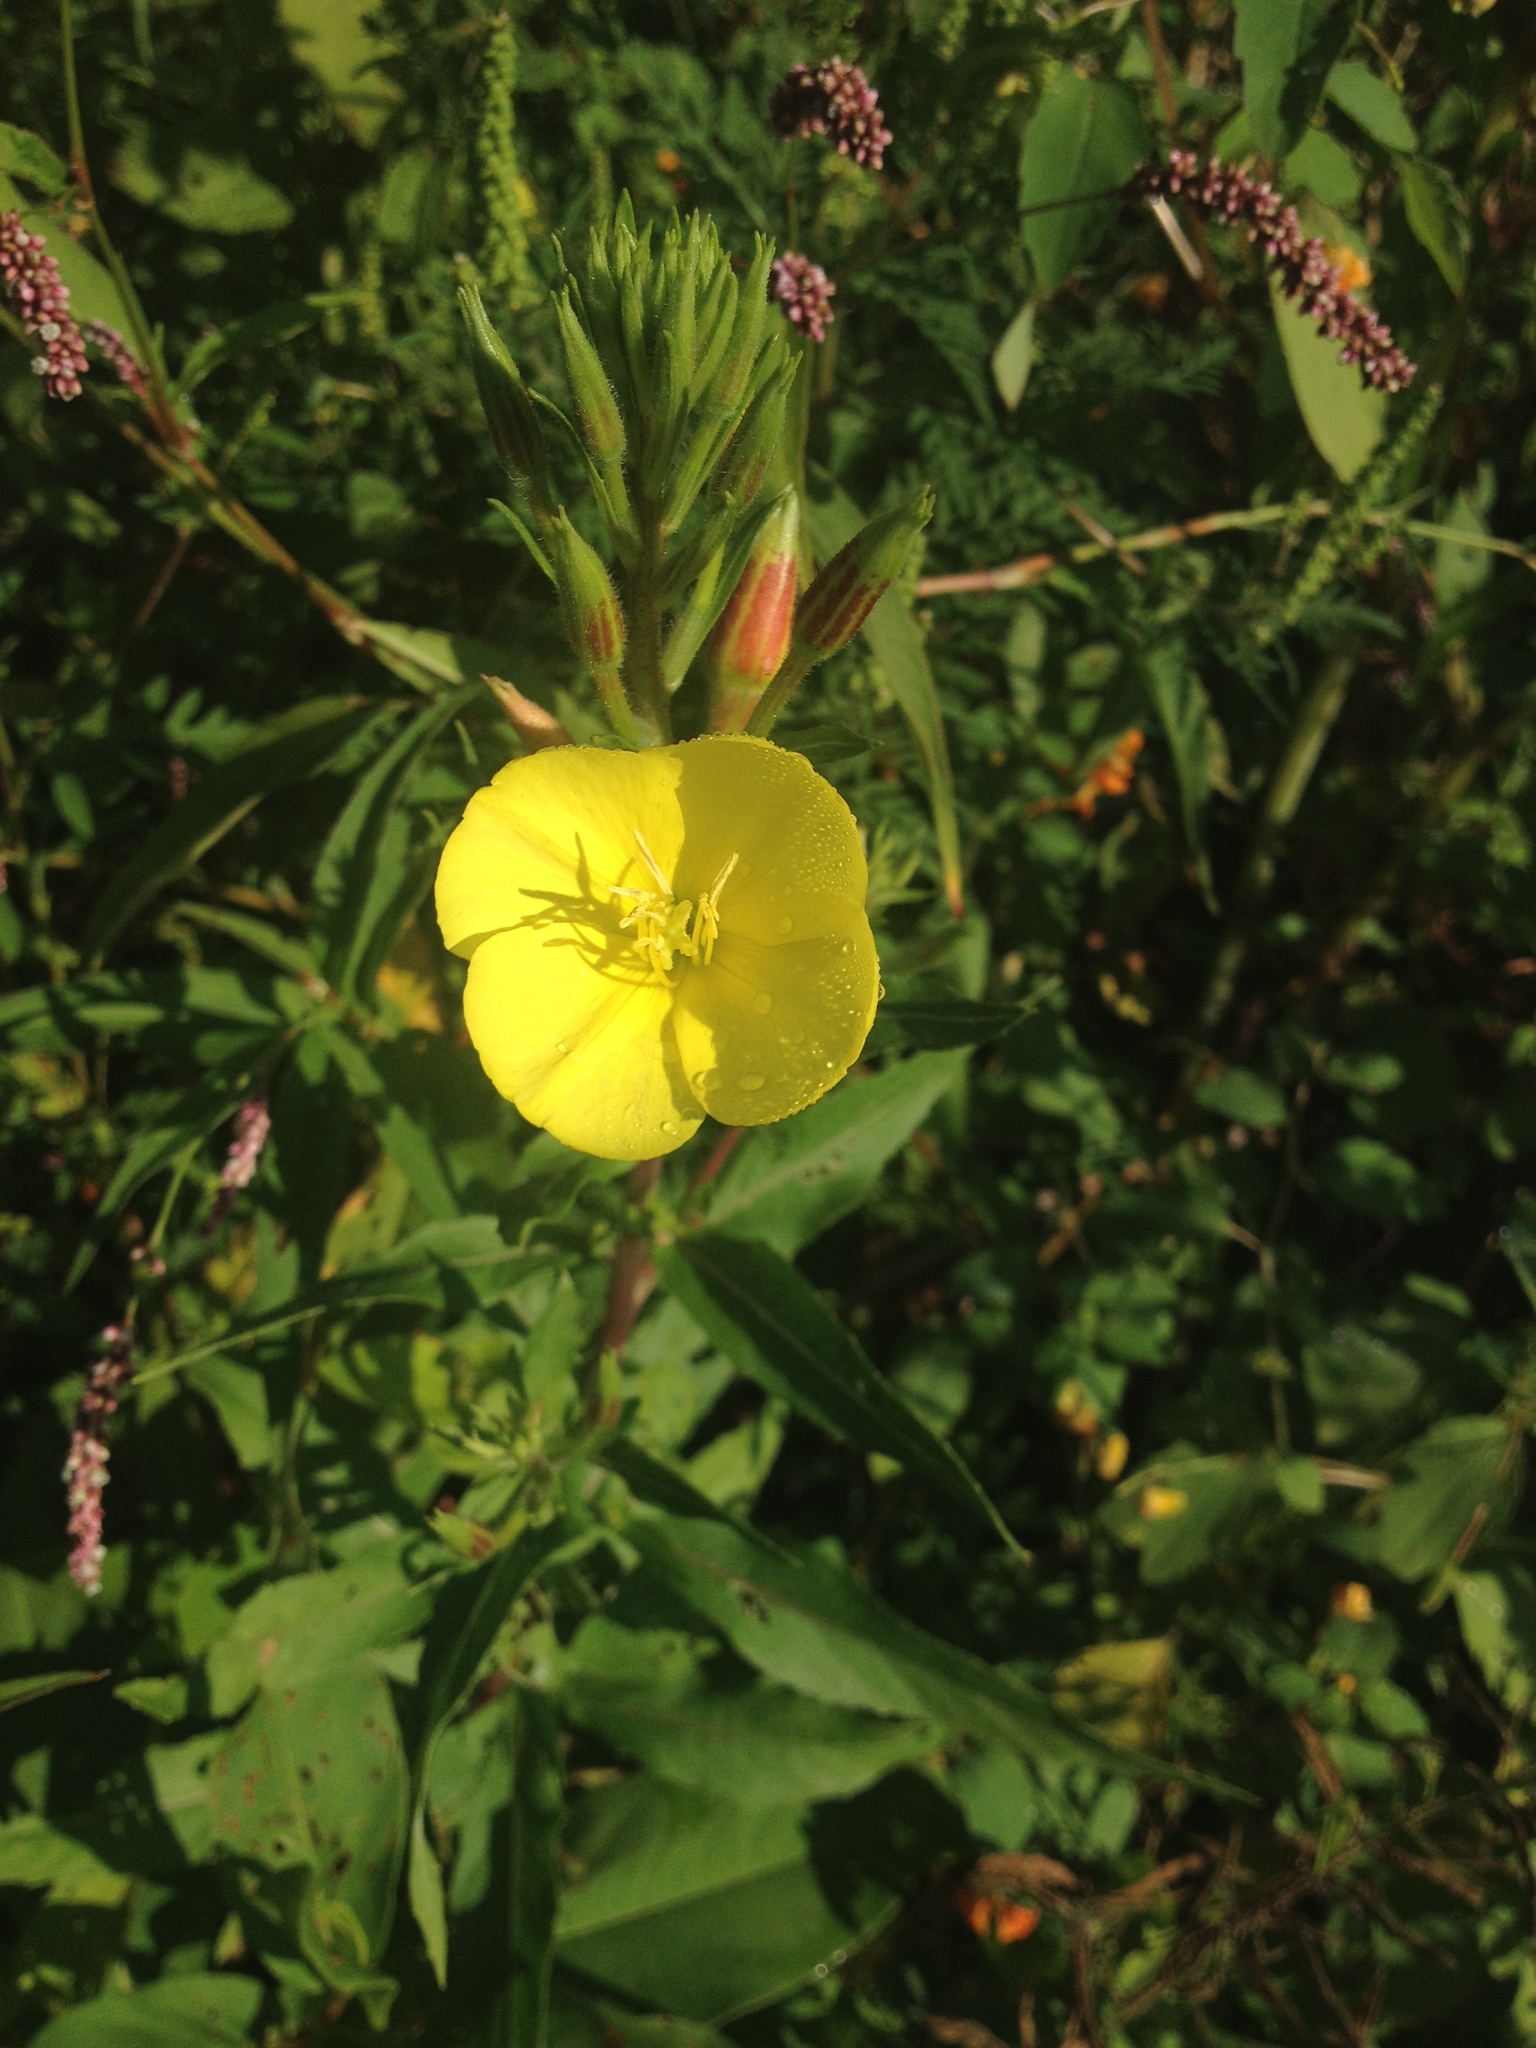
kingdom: Plantae
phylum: Tracheophyta
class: Magnoliopsida
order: Myrtales
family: Onagraceae
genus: Oenothera
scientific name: Oenothera biennis
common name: Common evening-primrose
